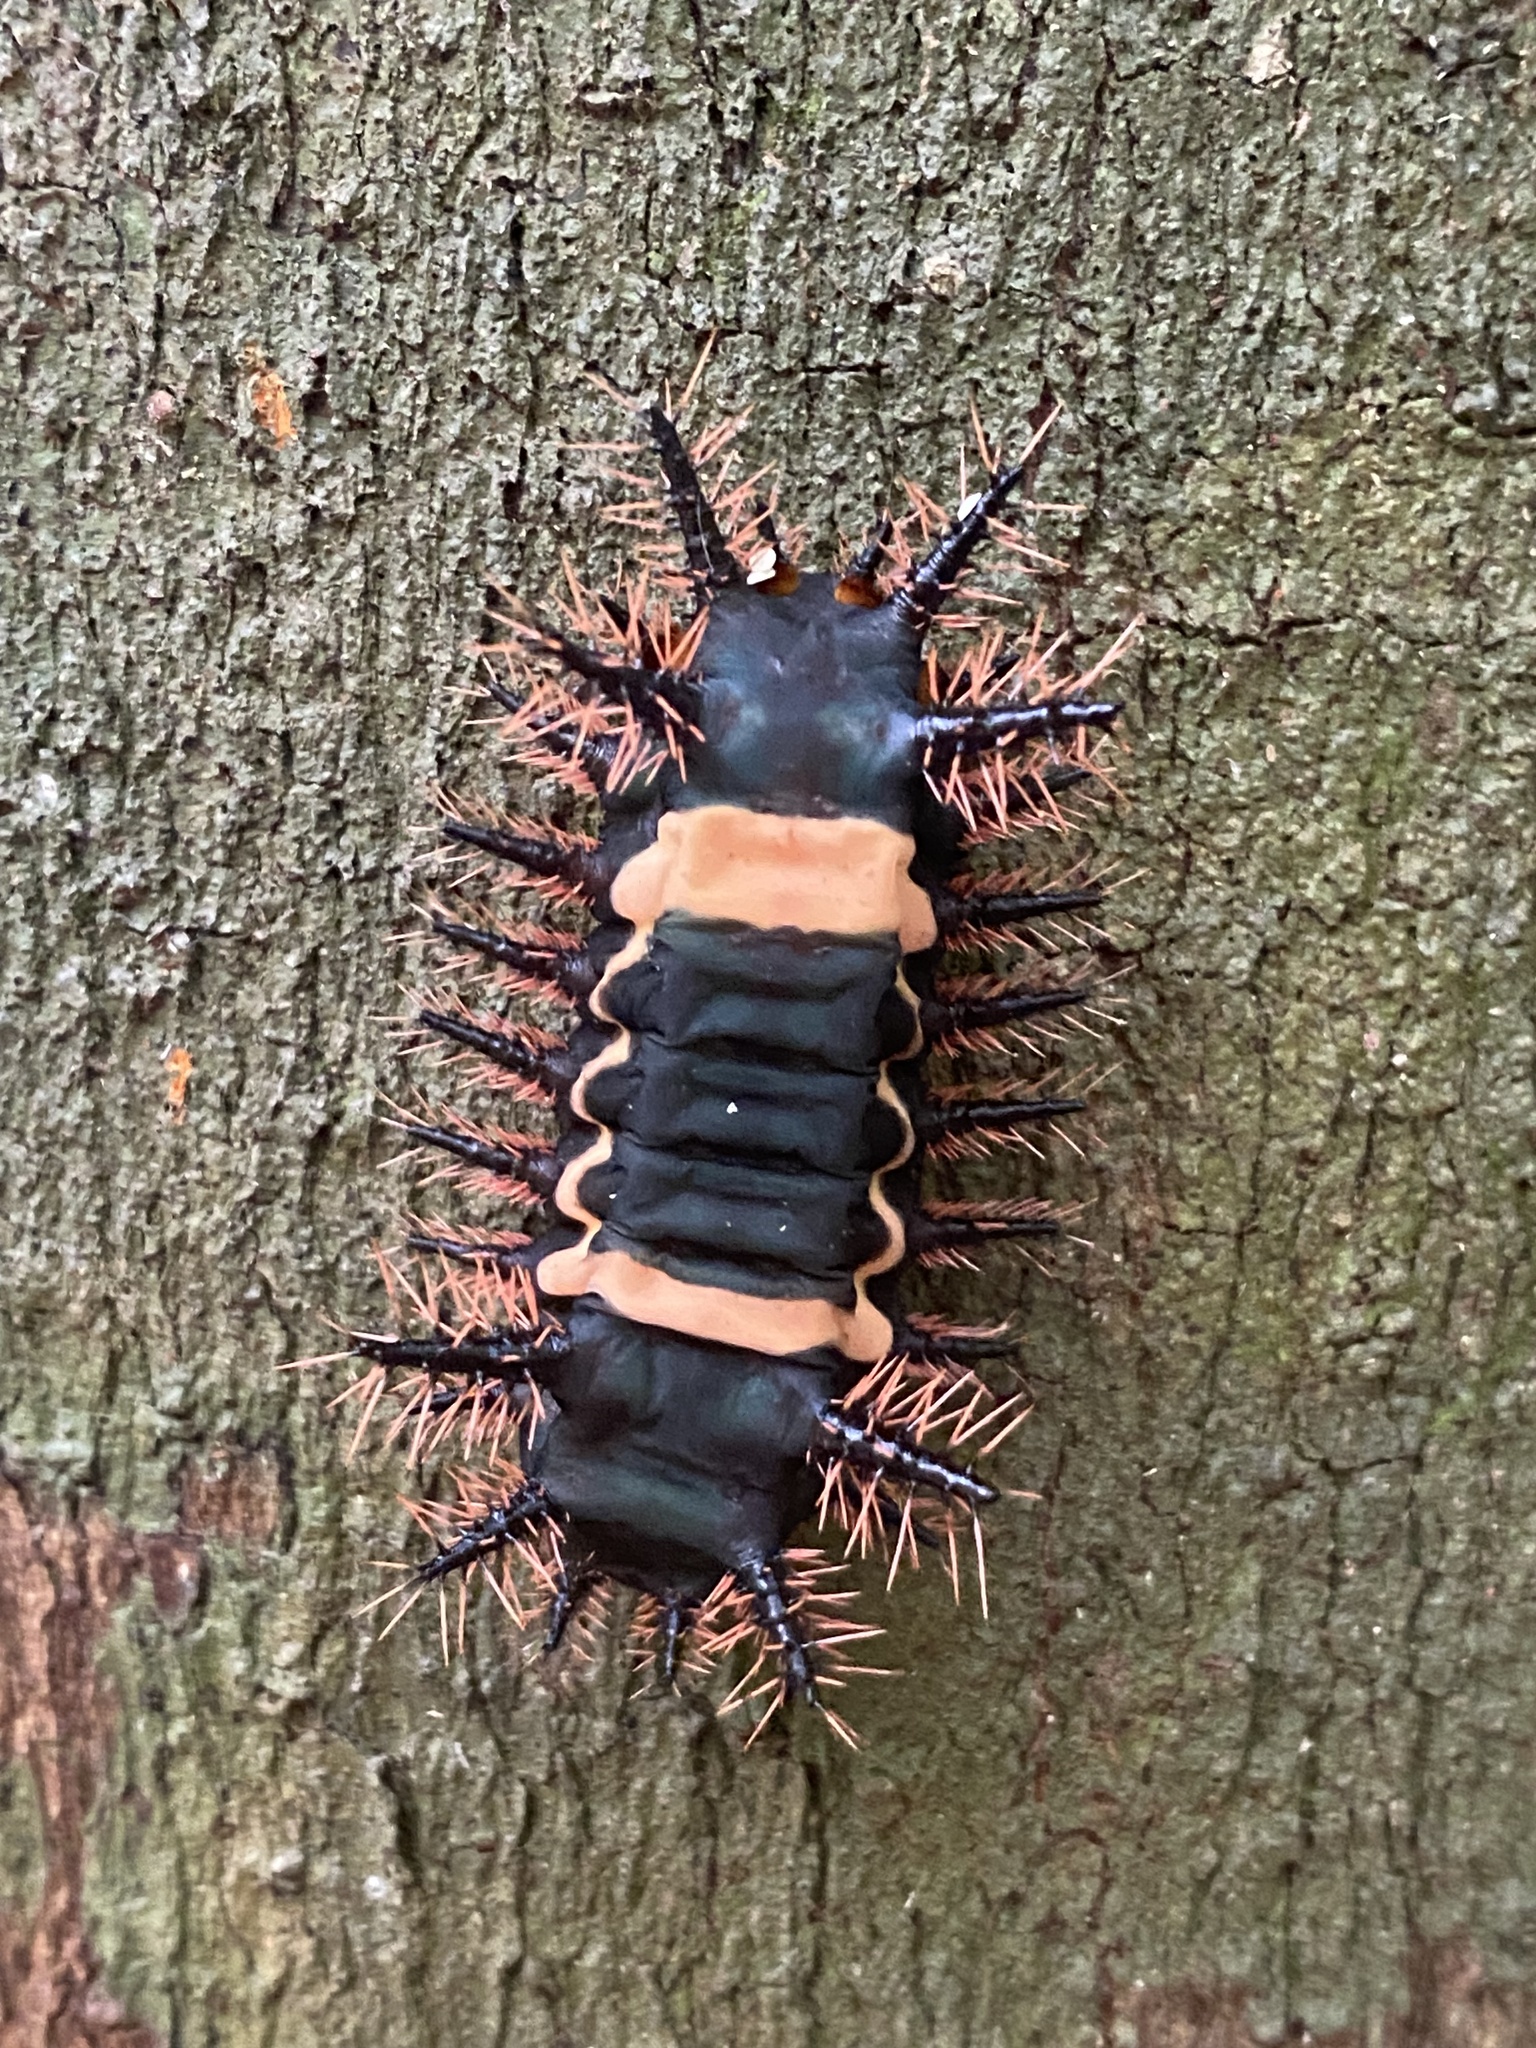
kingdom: Animalia
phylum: Arthropoda
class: Insecta
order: Lepidoptera
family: Limacodidae
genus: Sibine
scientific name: Sibine nesea
